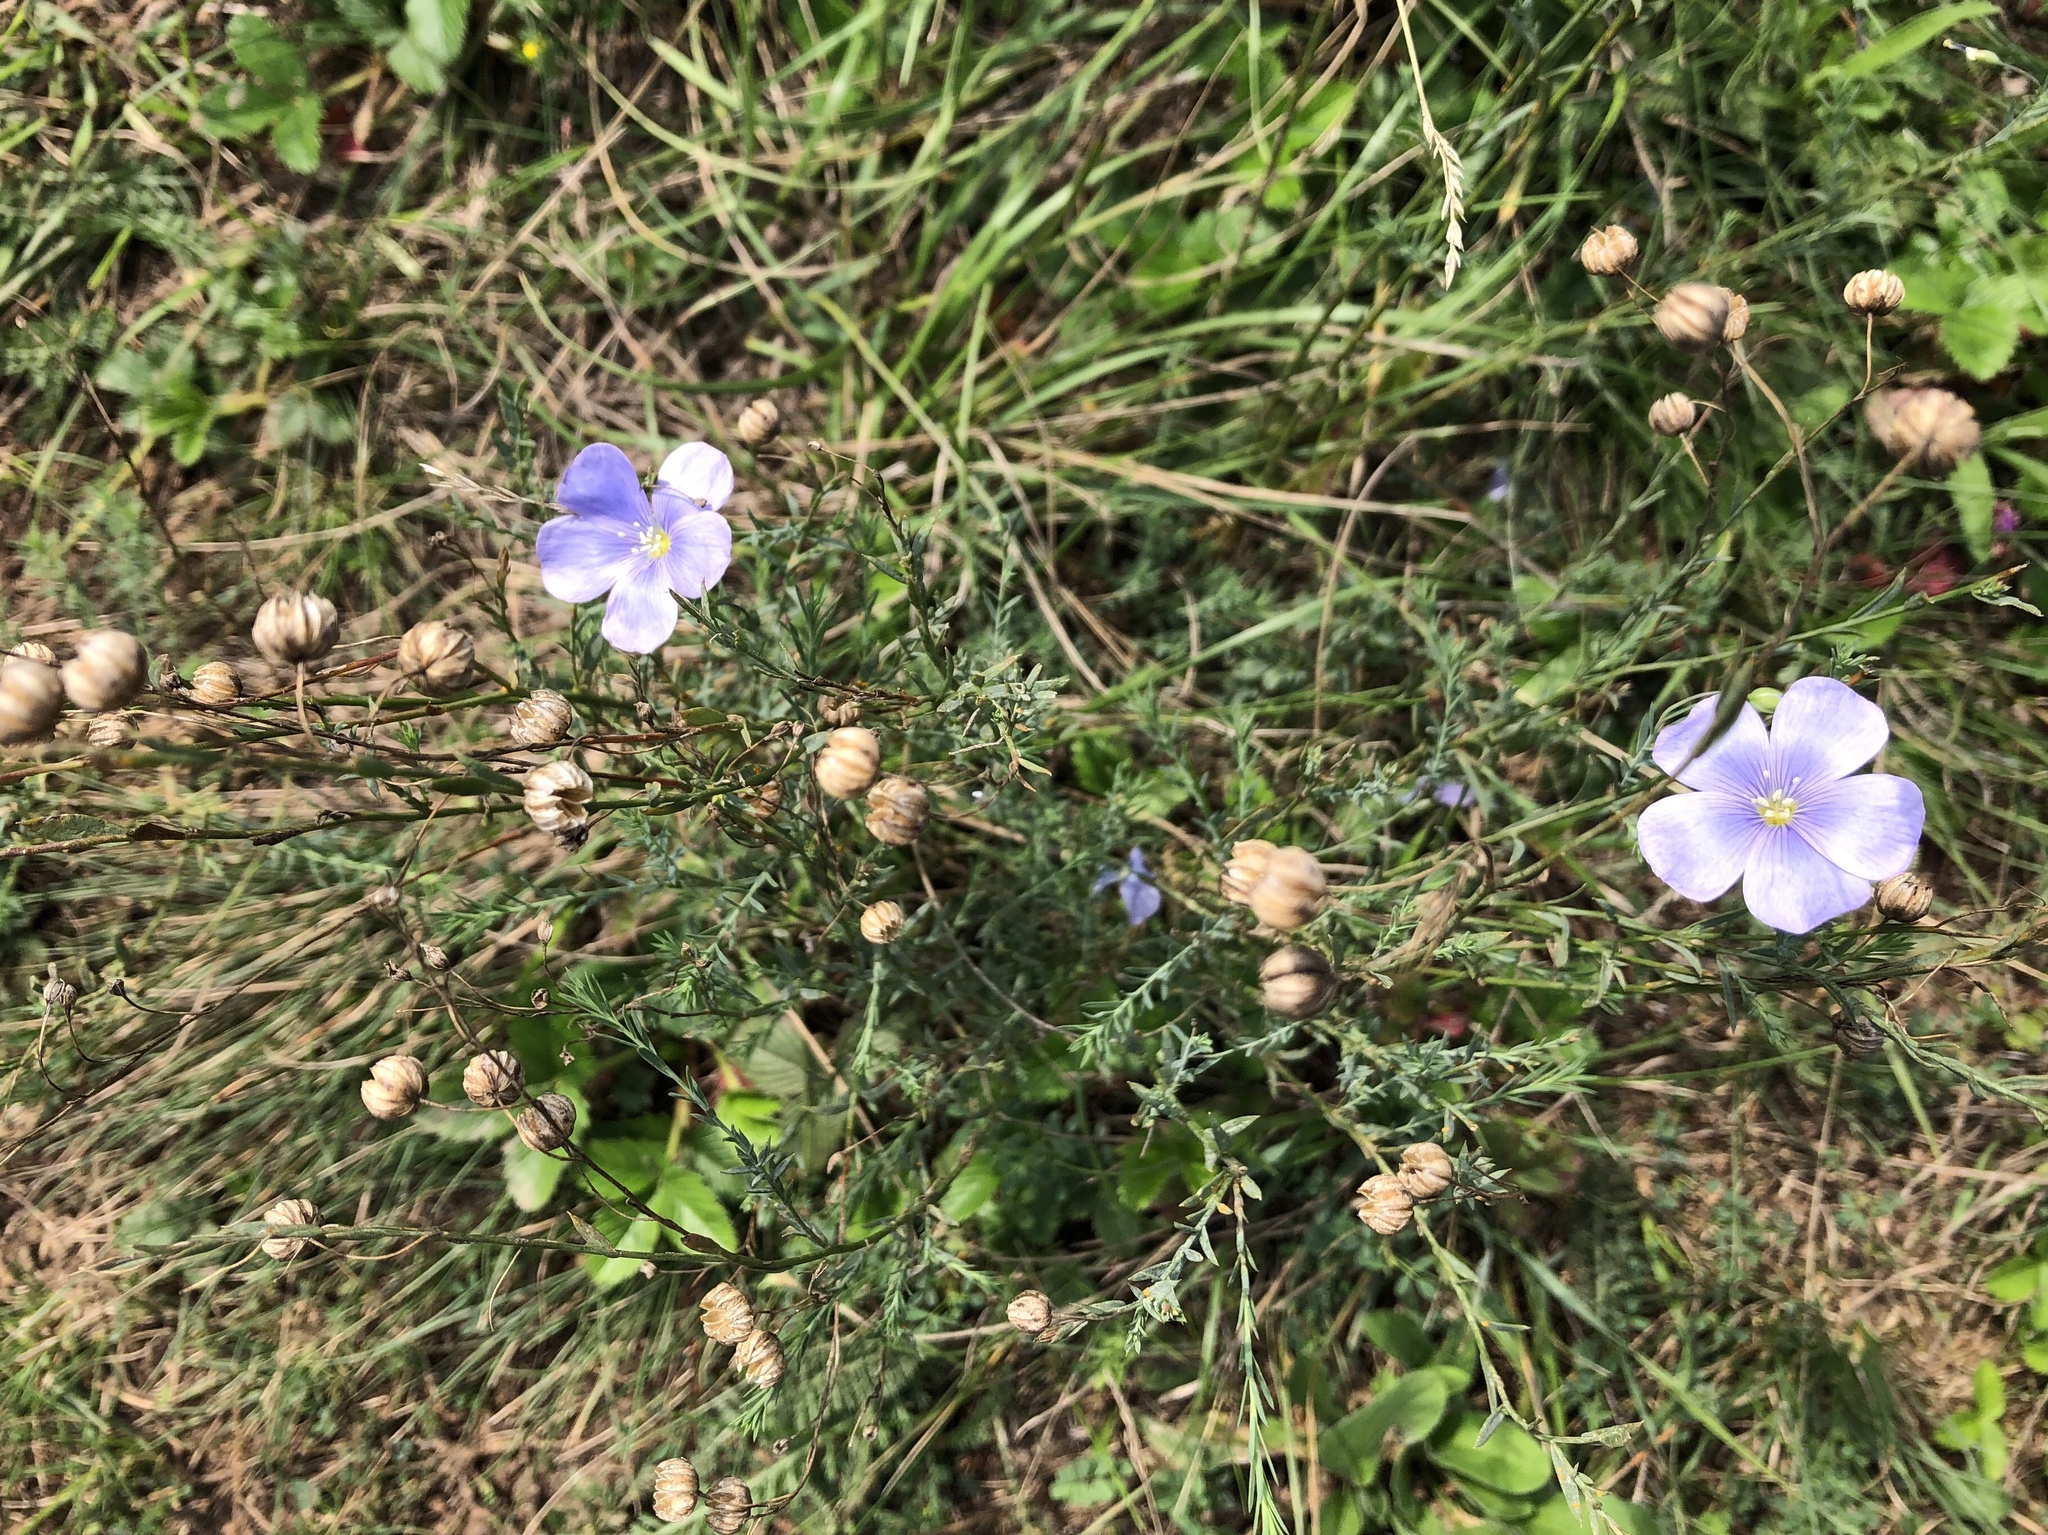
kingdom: Plantae
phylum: Tracheophyta
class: Magnoliopsida
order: Malpighiales
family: Linaceae
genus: Linum
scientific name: Linum austriacum
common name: Austrian flax
